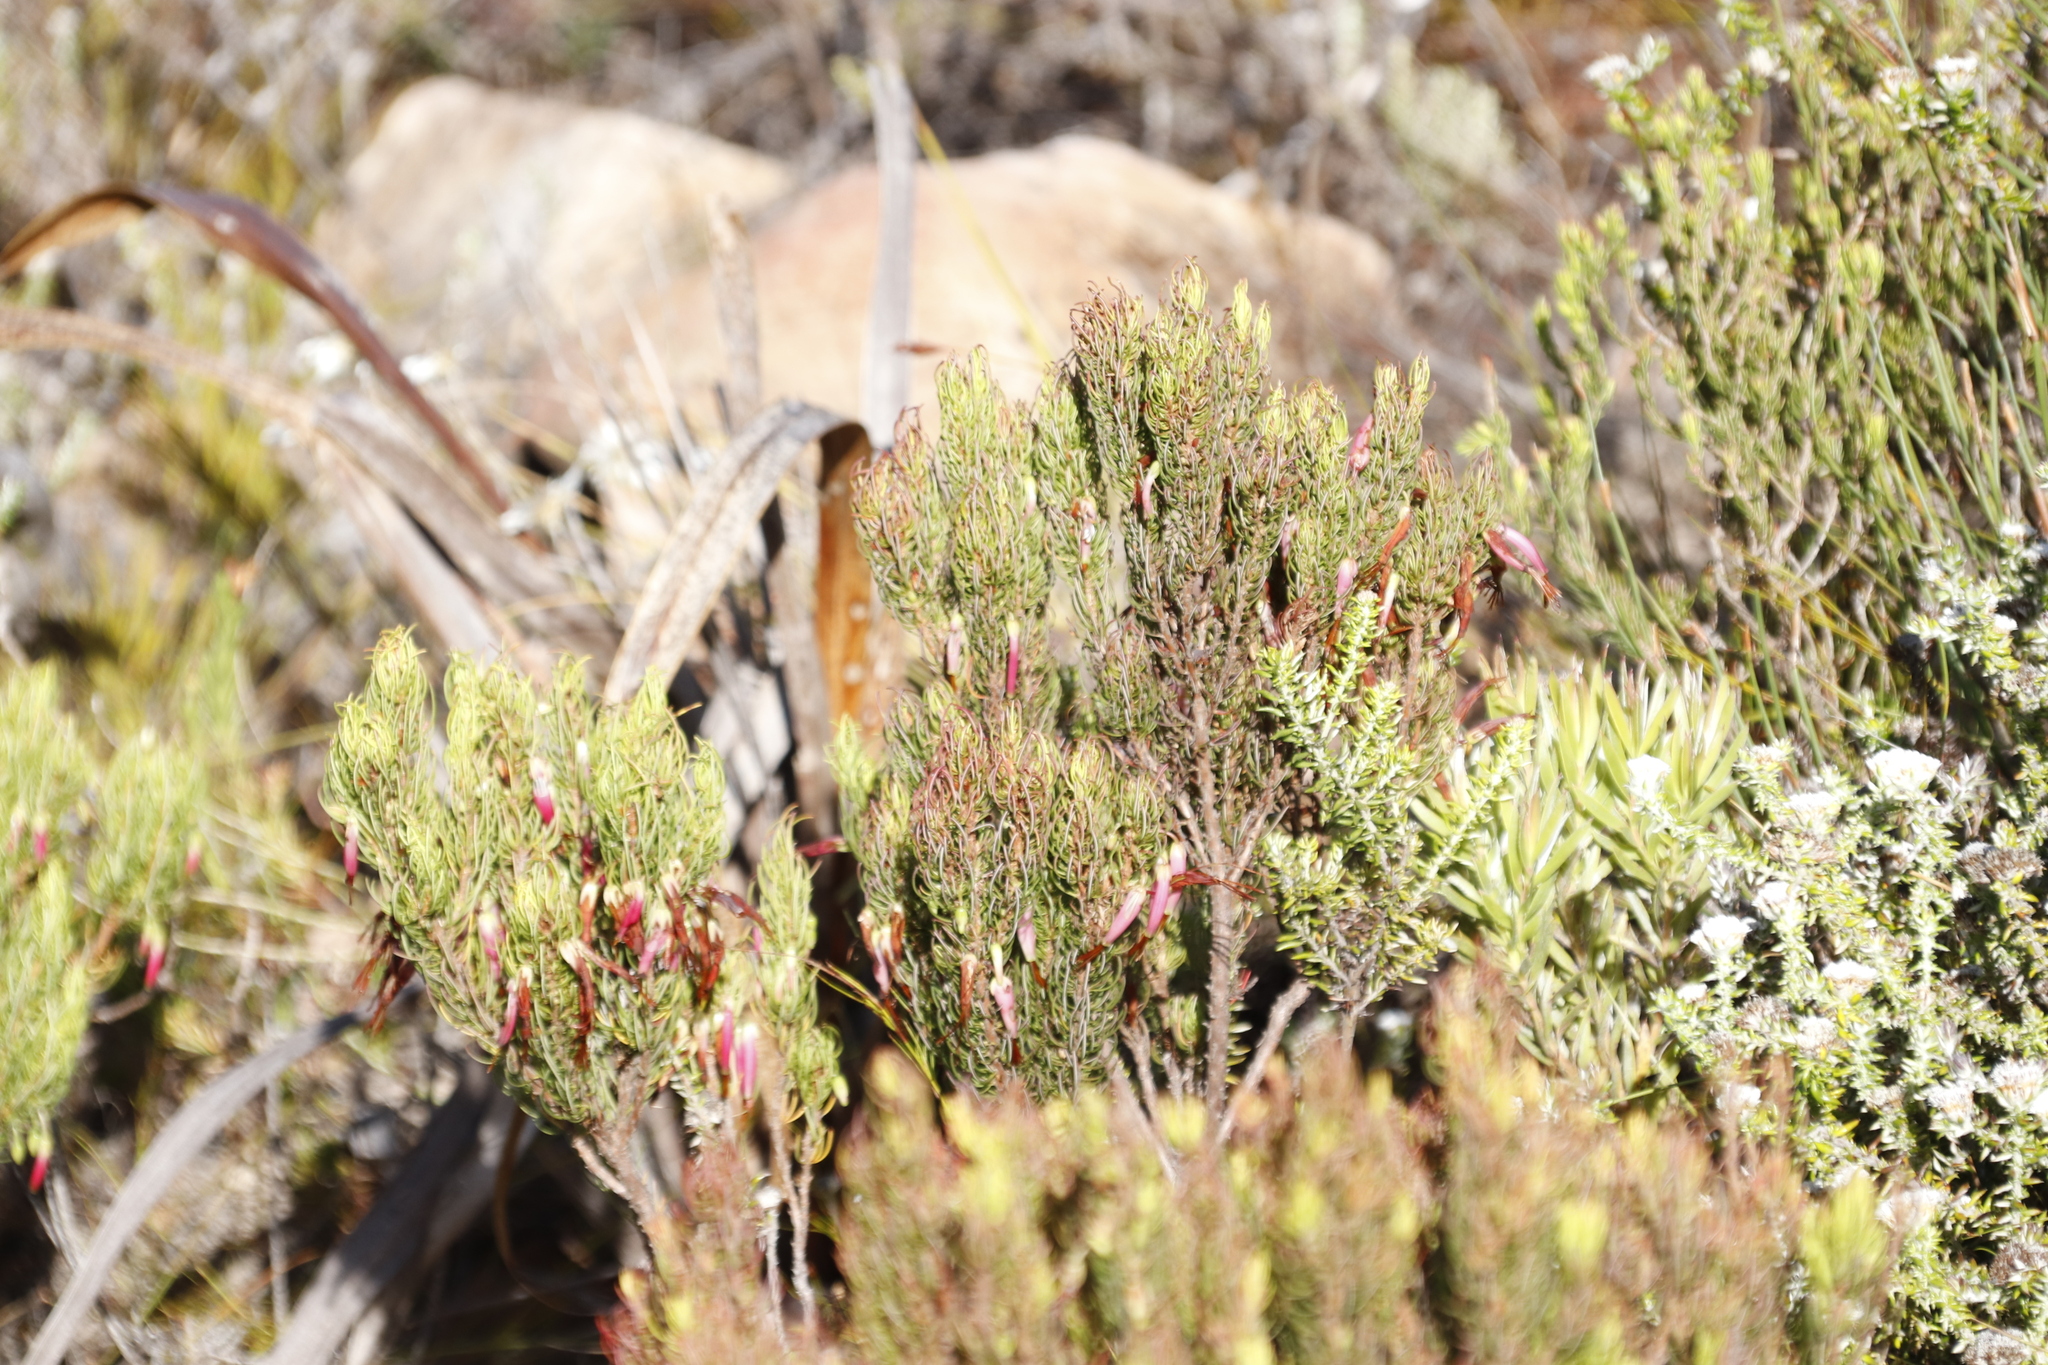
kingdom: Plantae
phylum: Tracheophyta
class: Magnoliopsida
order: Ericales
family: Ericaceae
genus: Erica
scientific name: Erica plukenetii
